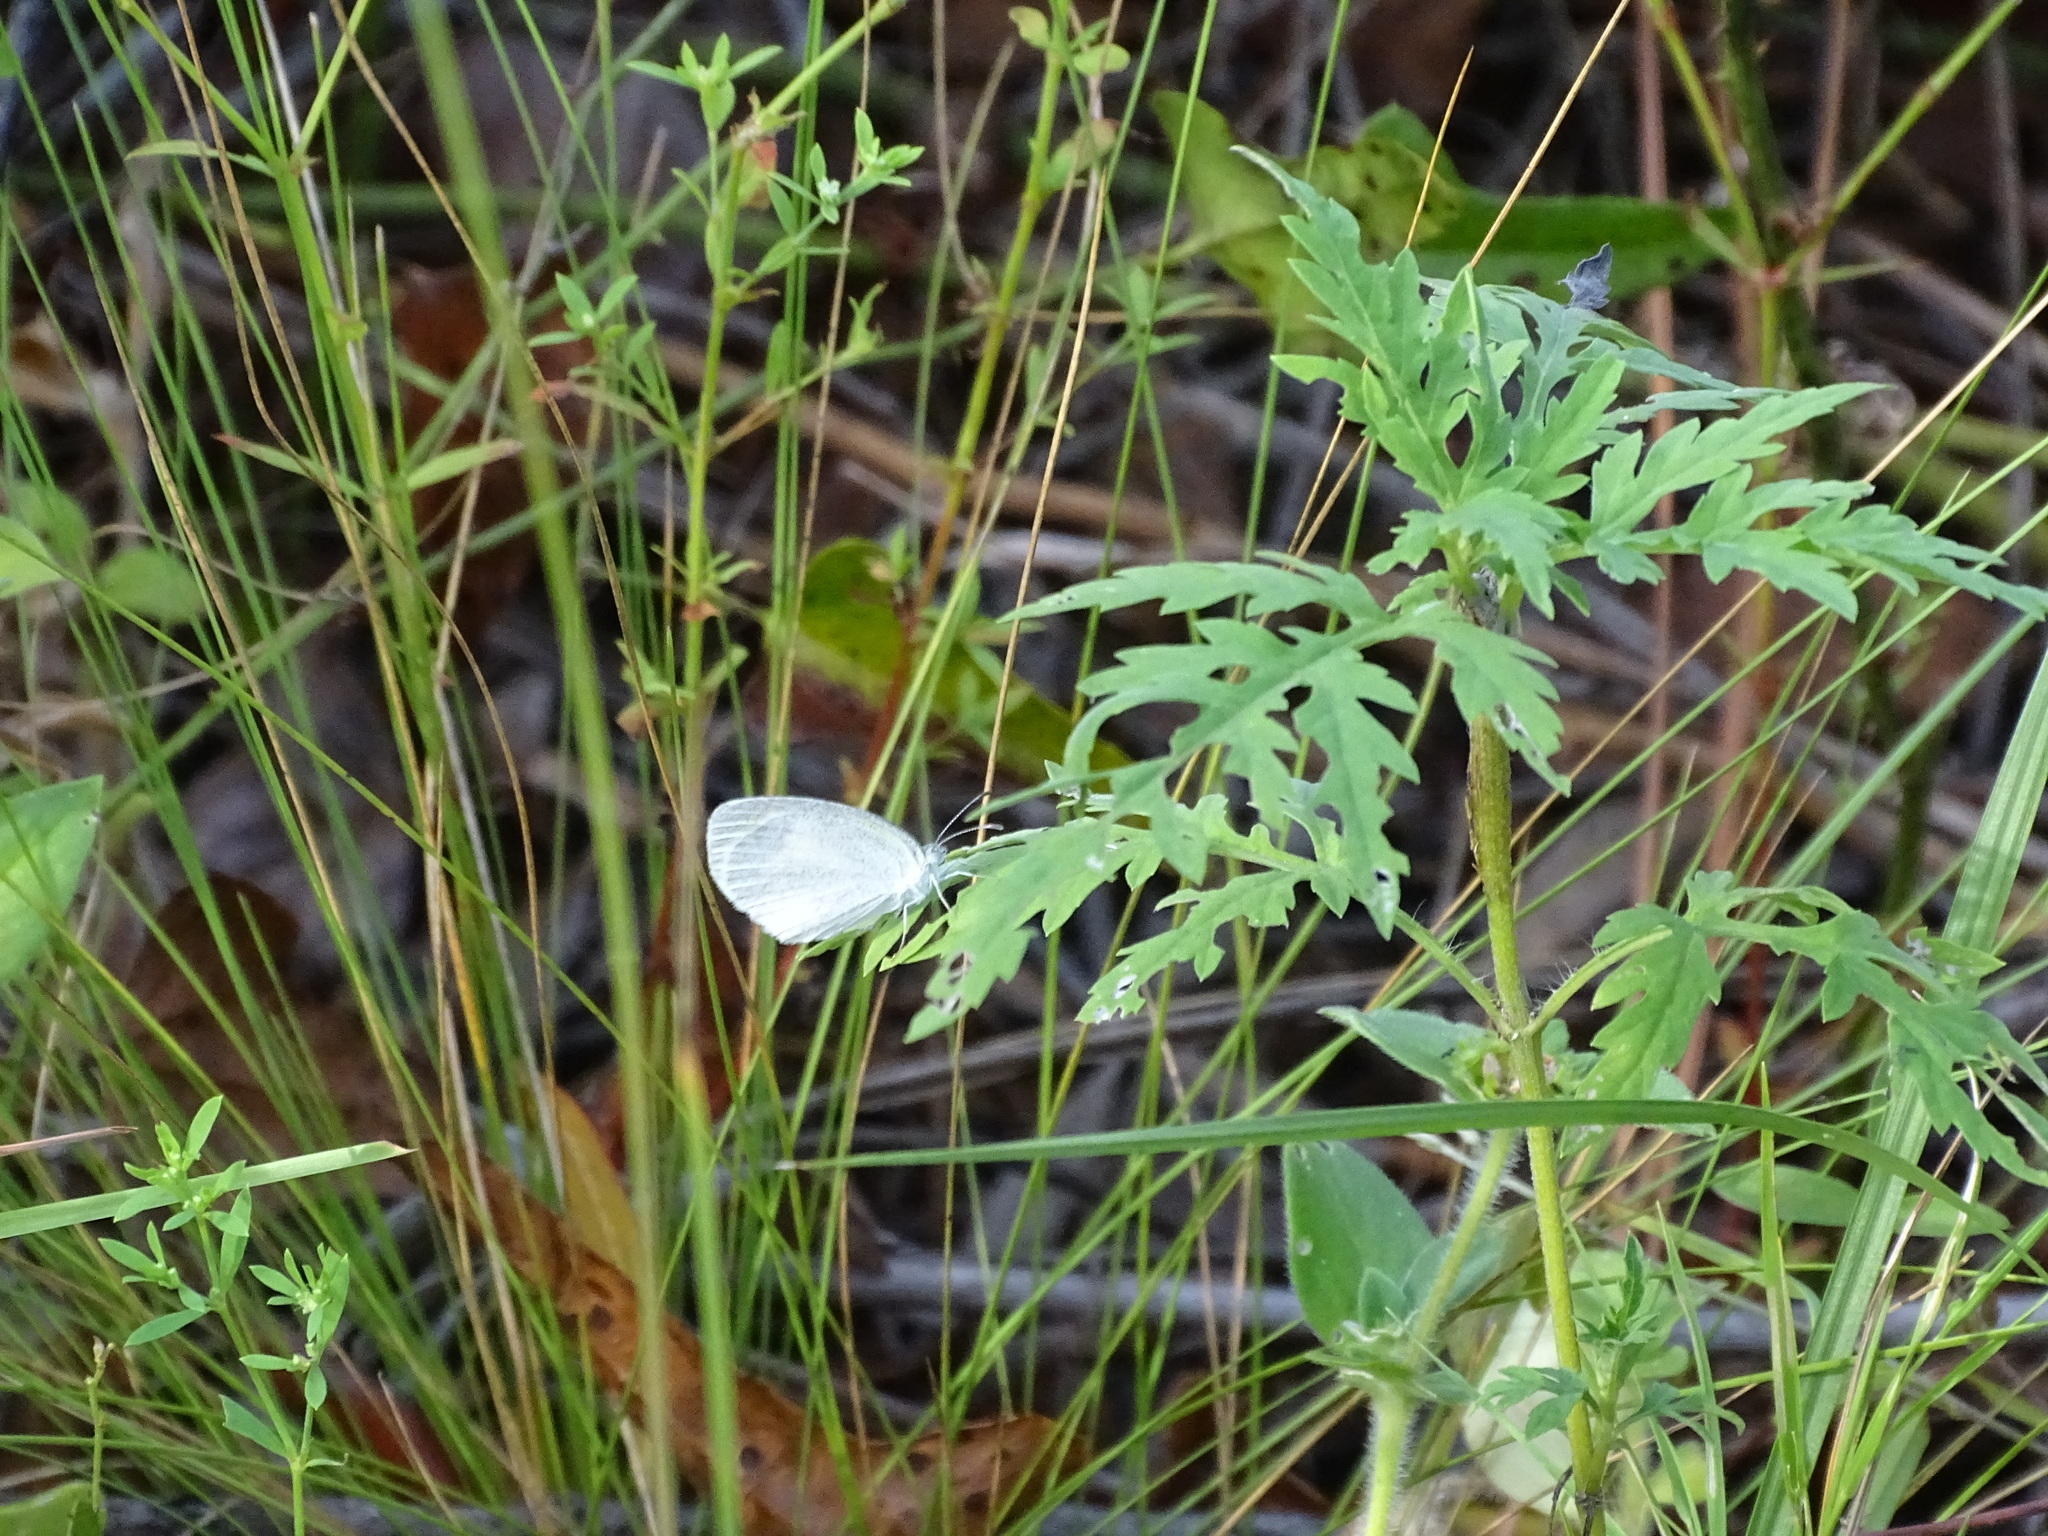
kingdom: Animalia
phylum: Arthropoda
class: Insecta
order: Lepidoptera
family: Pieridae
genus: Eurema
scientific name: Eurema daira
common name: Barred sulphur
